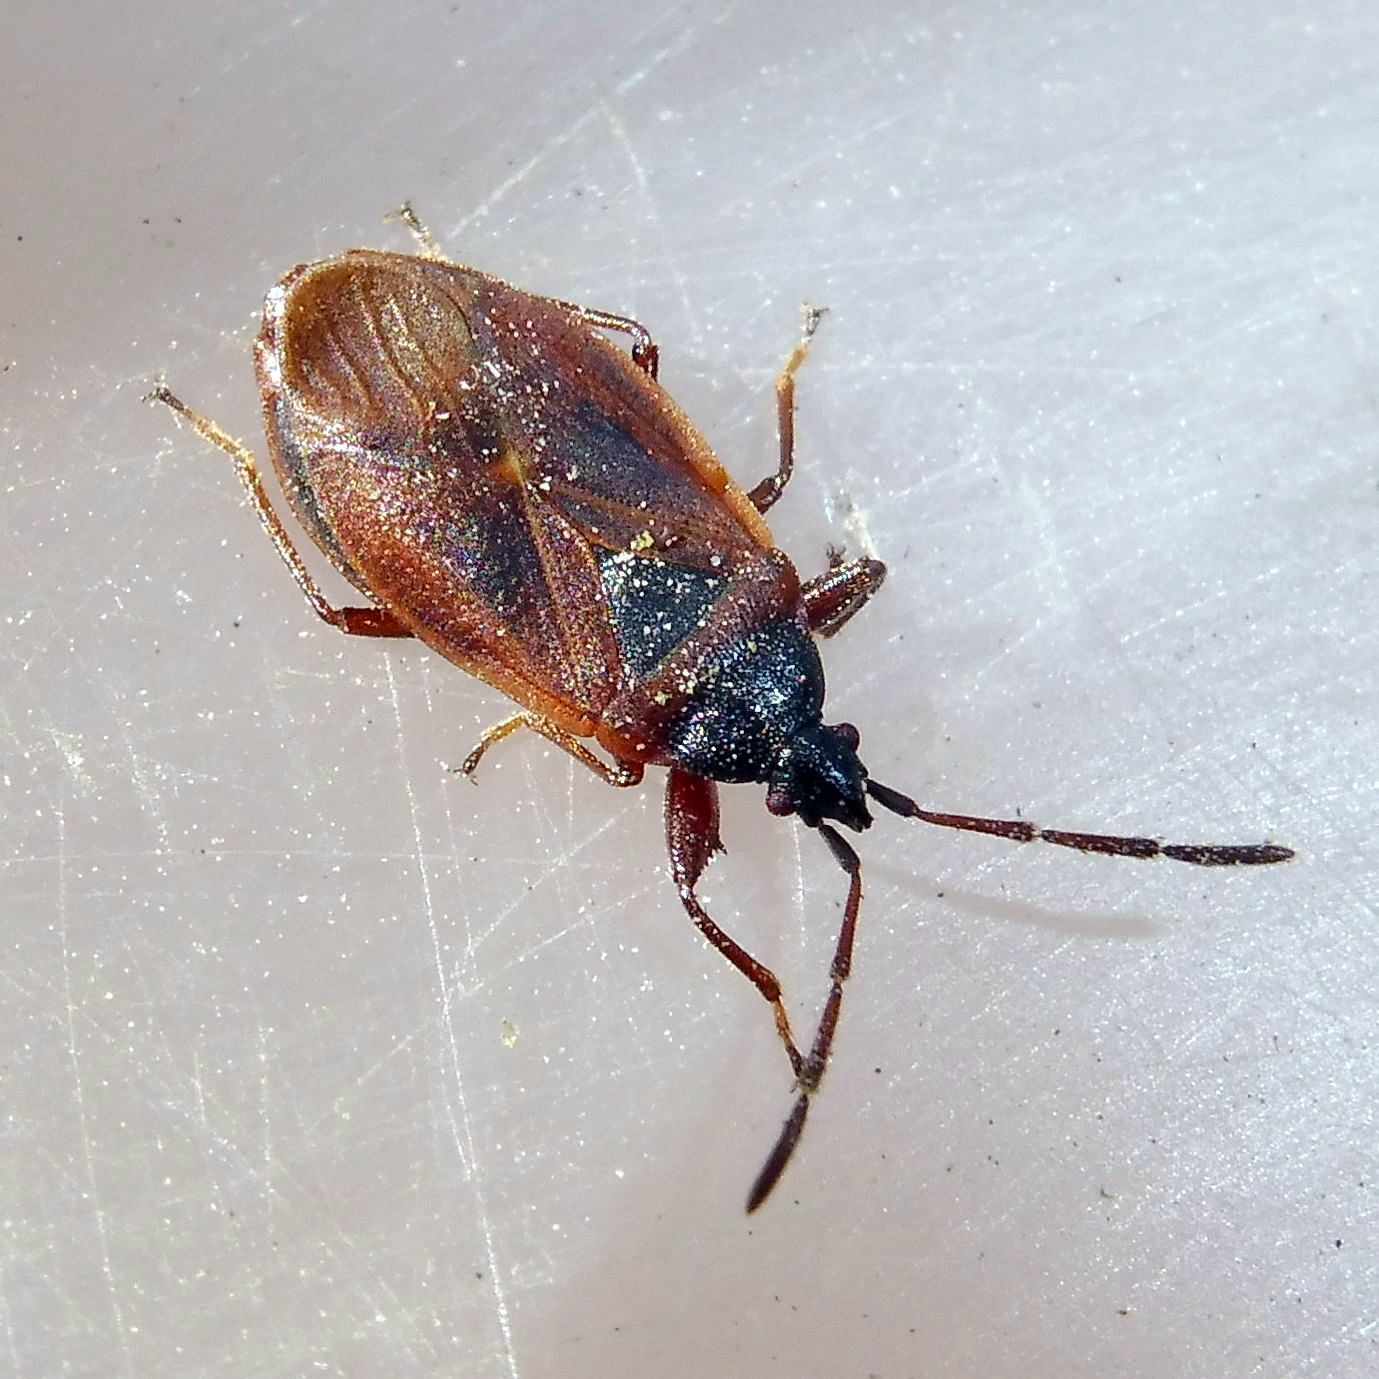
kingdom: Animalia
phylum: Arthropoda
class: Insecta
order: Hemiptera
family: Rhyparochromidae
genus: Gastrodes
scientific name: Gastrodes grossipes
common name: Pine cone bug
